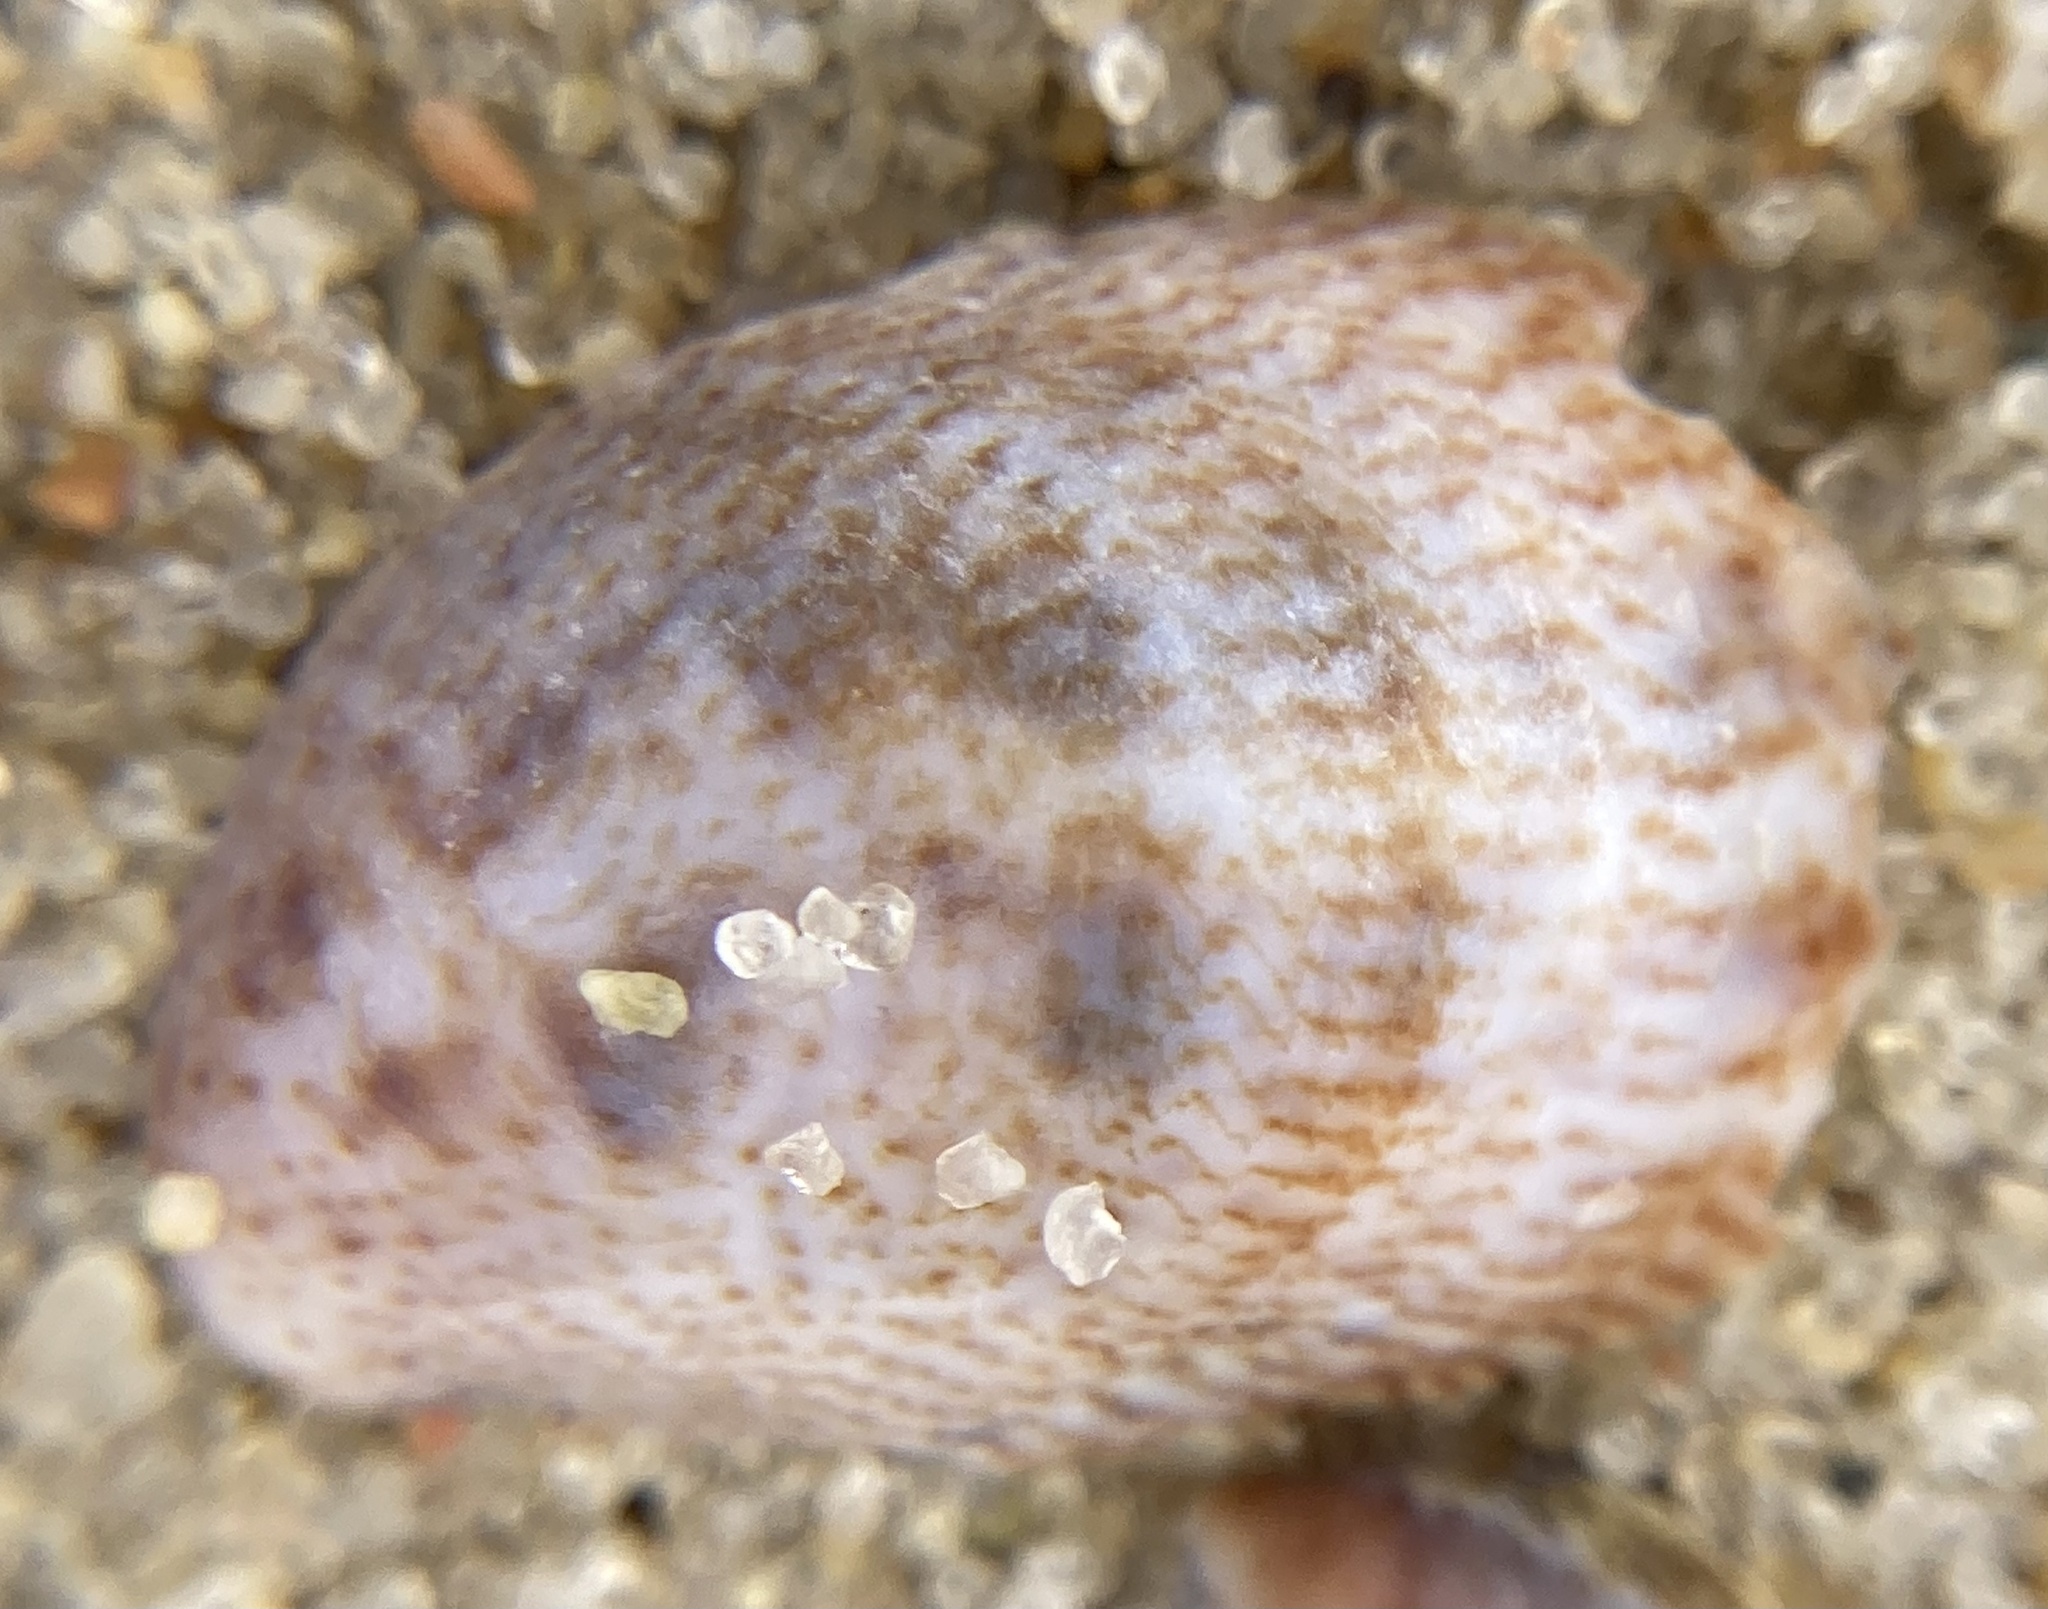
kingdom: Animalia
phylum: Mollusca
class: Gastropoda
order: Littorinimorpha
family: Calyptraeidae
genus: Crepidula
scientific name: Crepidula fornicata
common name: Slipper limpet
